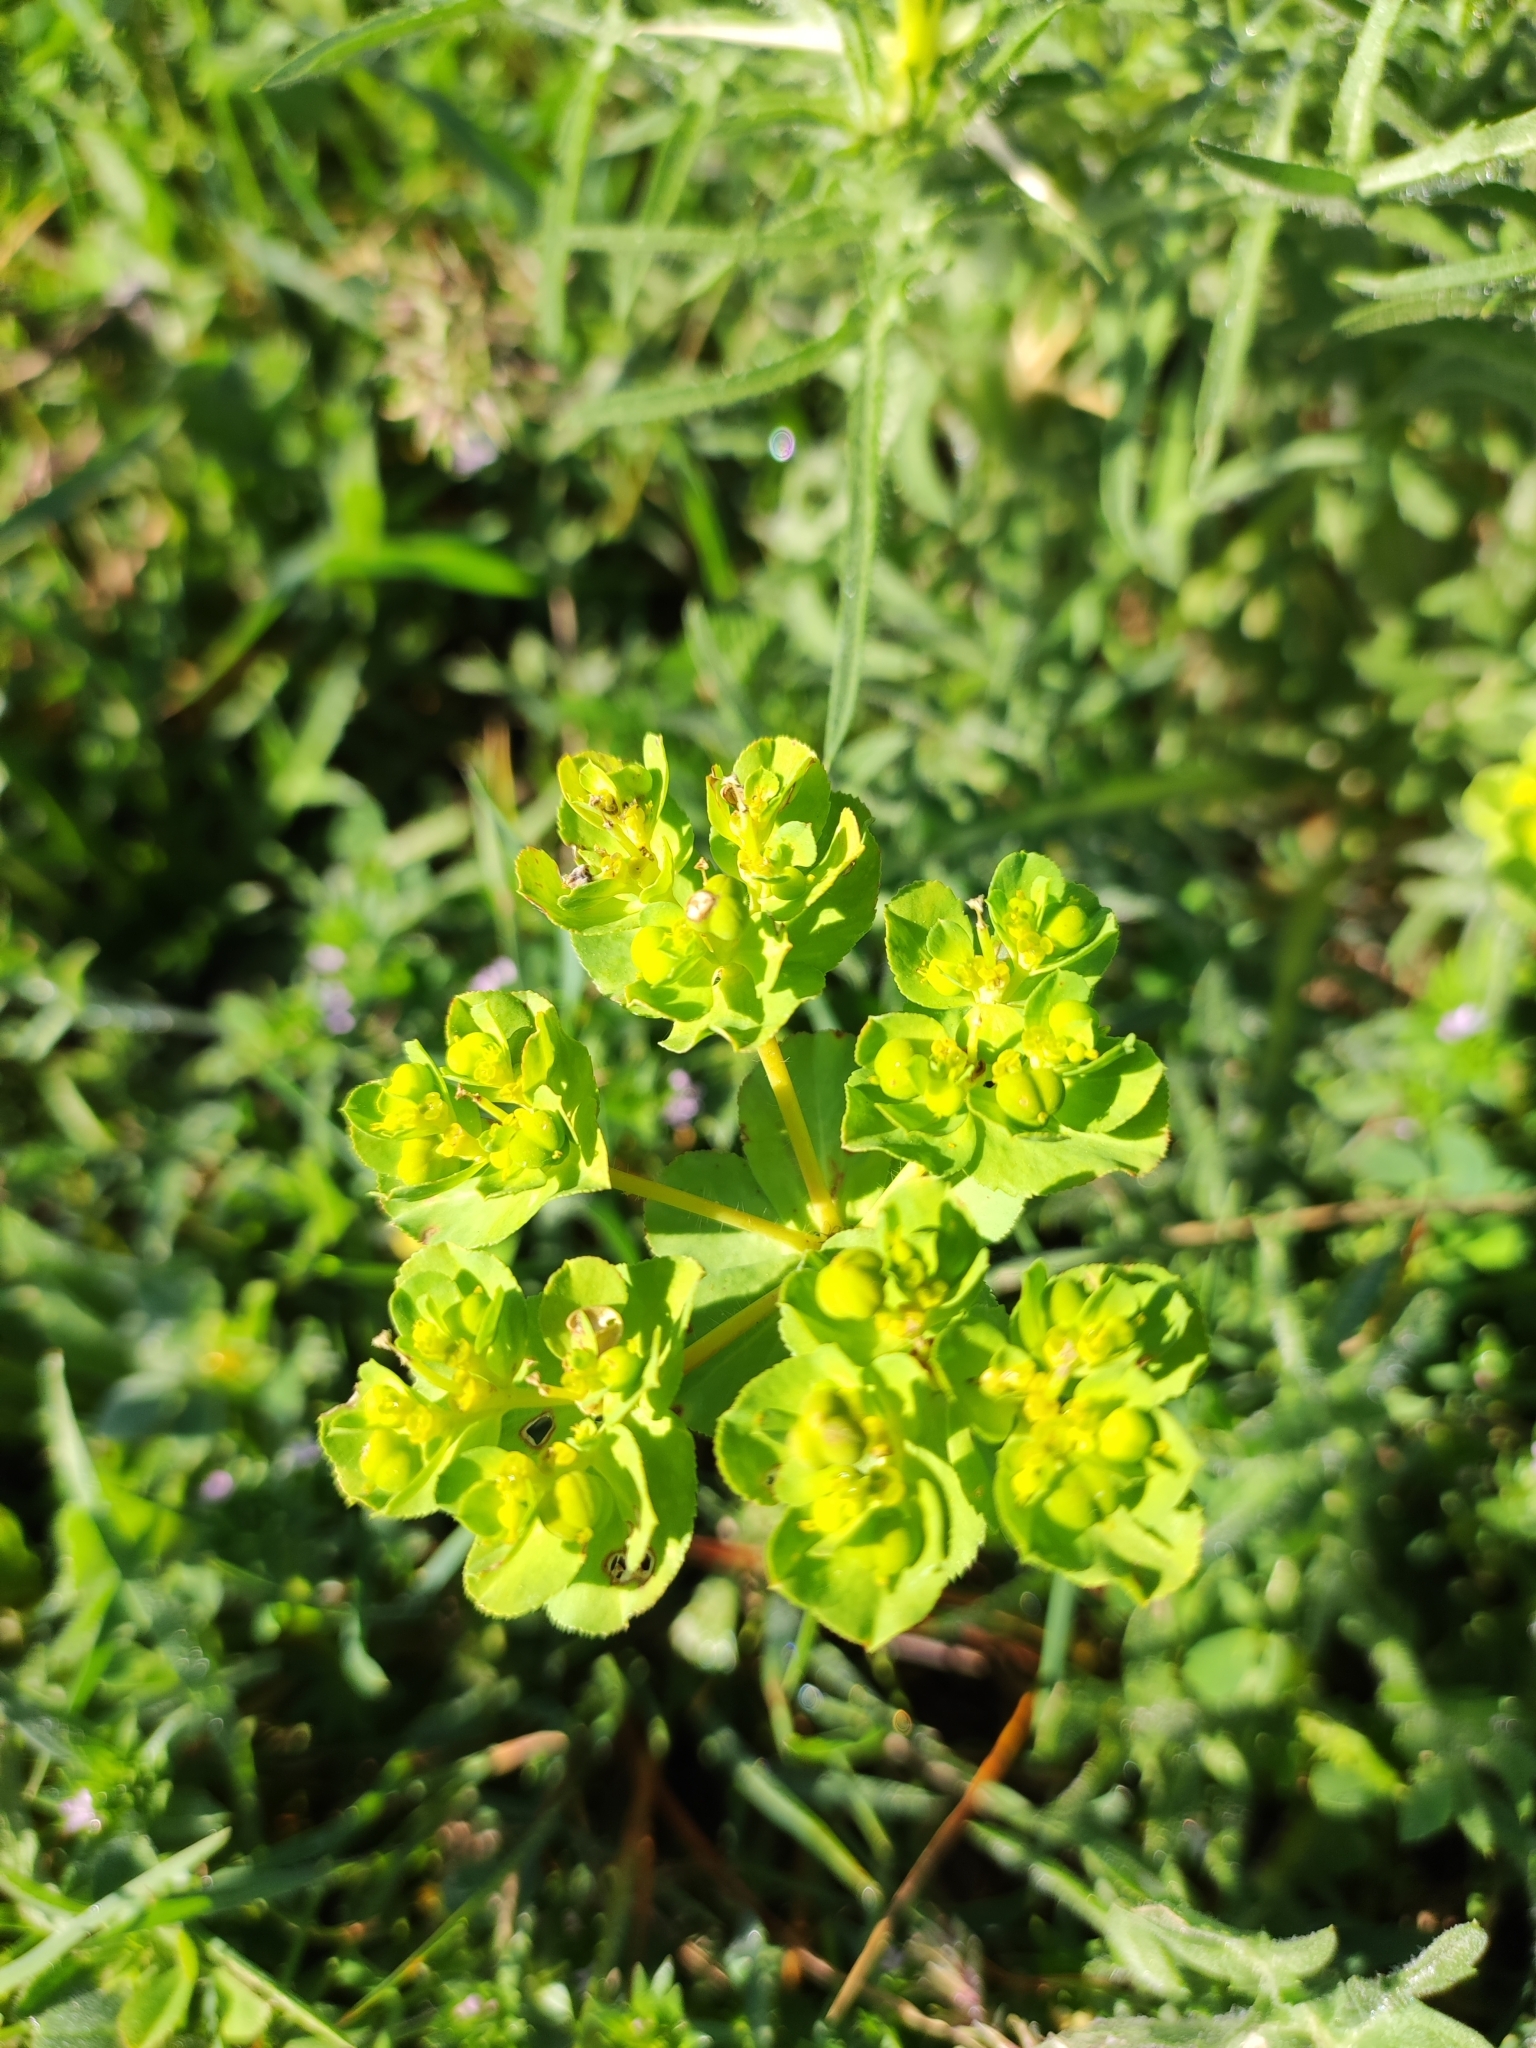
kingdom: Plantae
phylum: Tracheophyta
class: Magnoliopsida
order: Malpighiales
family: Euphorbiaceae
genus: Euphorbia
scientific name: Euphorbia helioscopia
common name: Sun spurge
